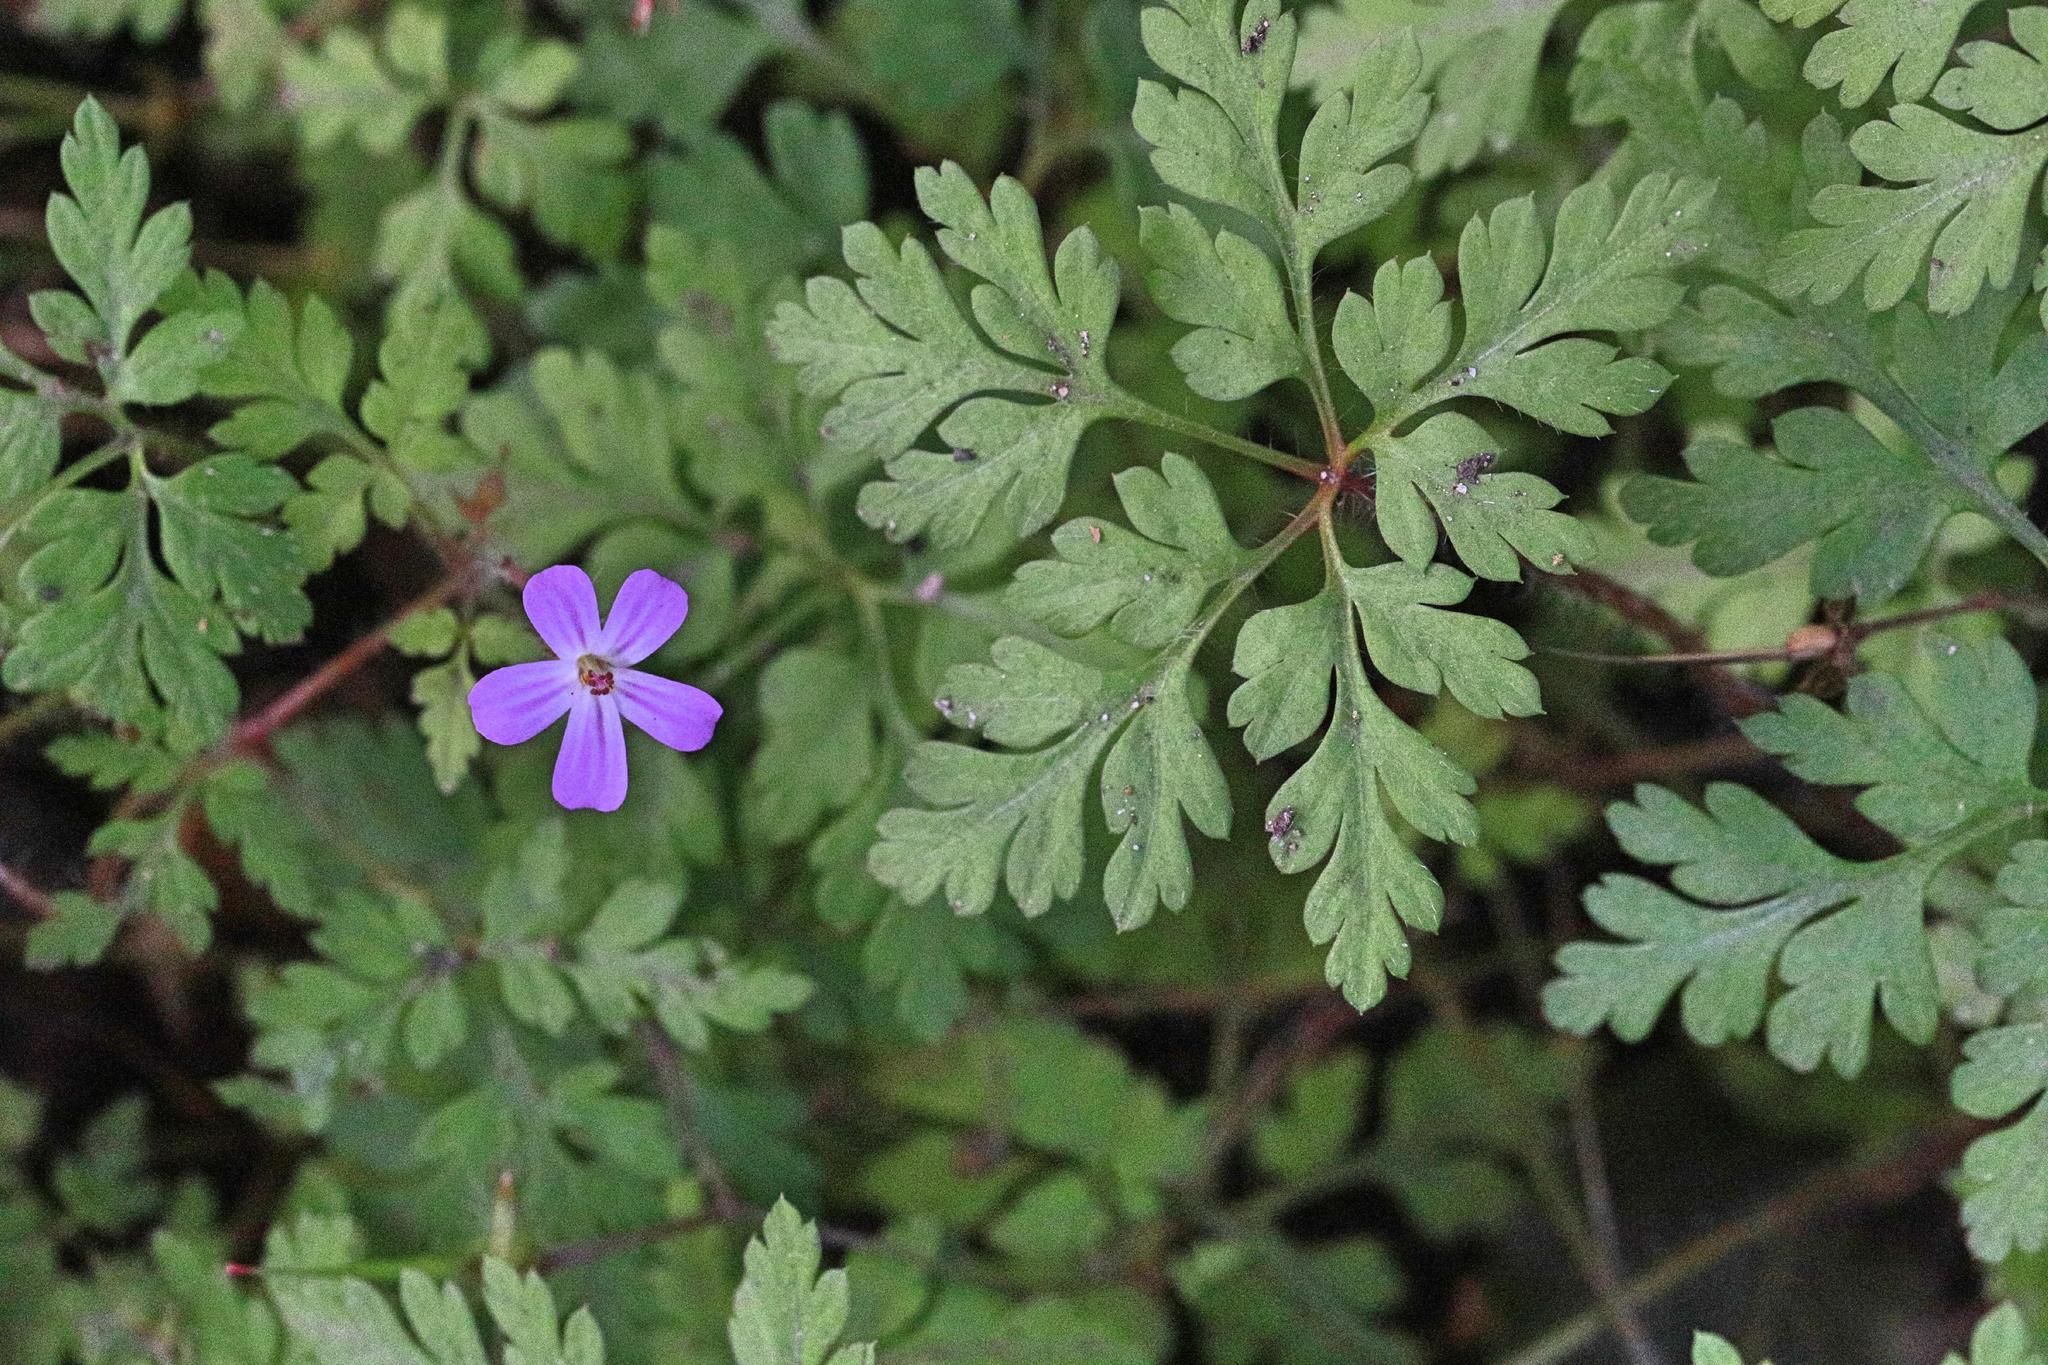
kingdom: Plantae
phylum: Tracheophyta
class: Magnoliopsida
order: Geraniales
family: Geraniaceae
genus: Geranium
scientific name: Geranium robertianum
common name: Herb-robert
